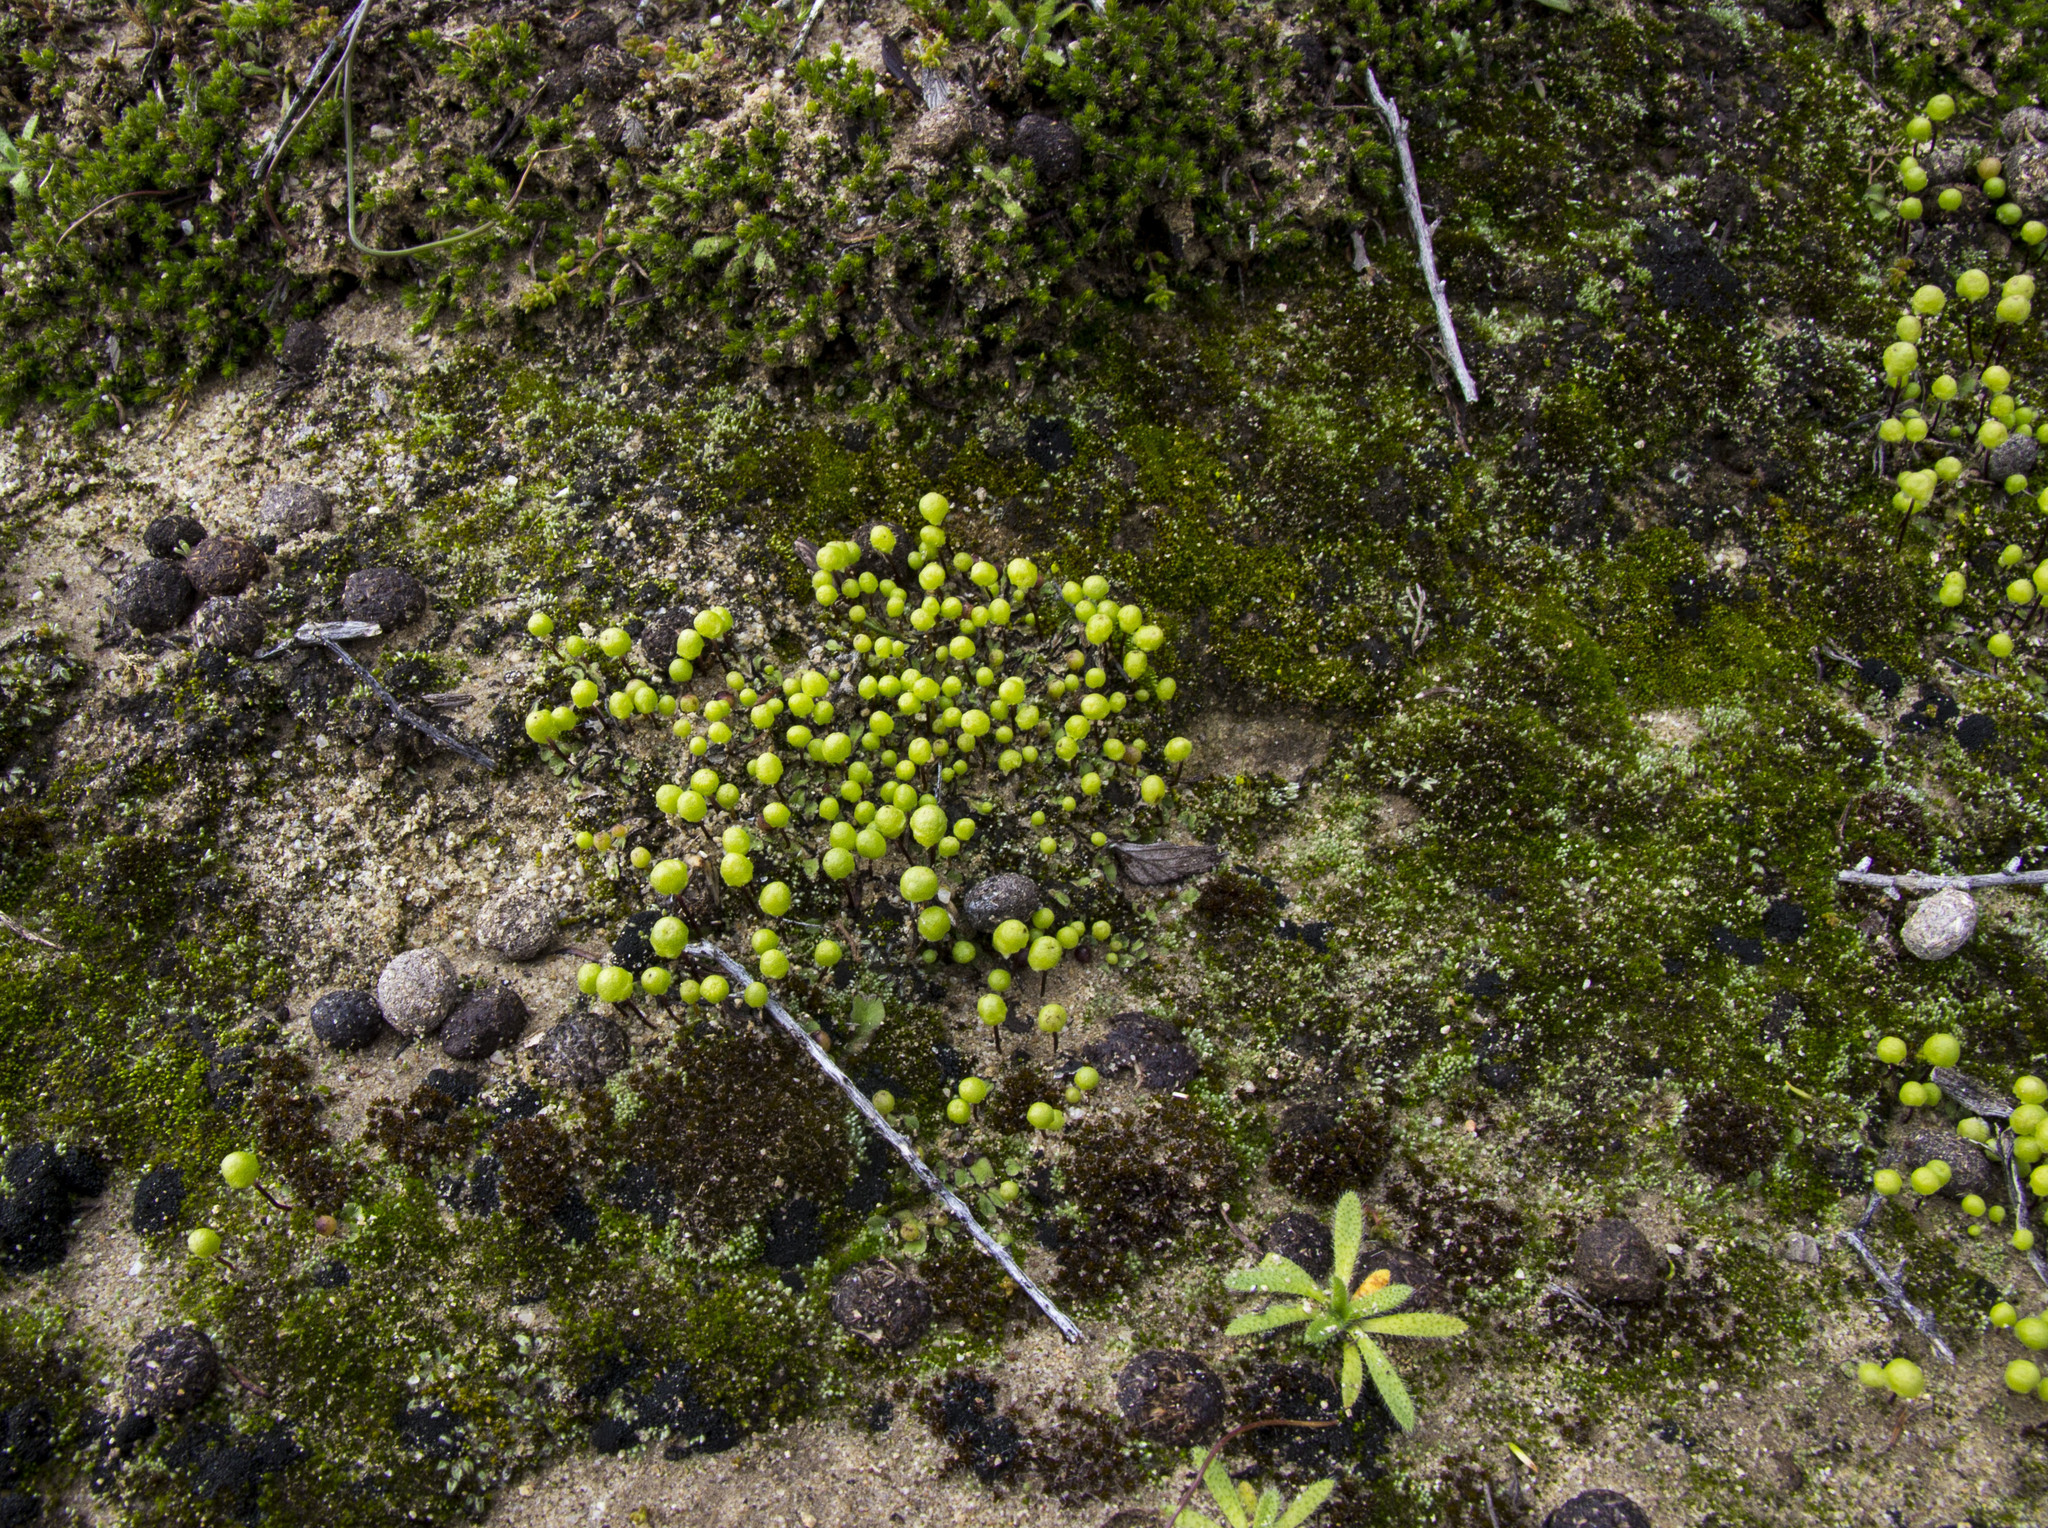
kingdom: Plantae
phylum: Marchantiophyta
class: Marchantiopsida
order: Marchantiales
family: Aytoniaceae
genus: Asterella
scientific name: Asterella palmeri
